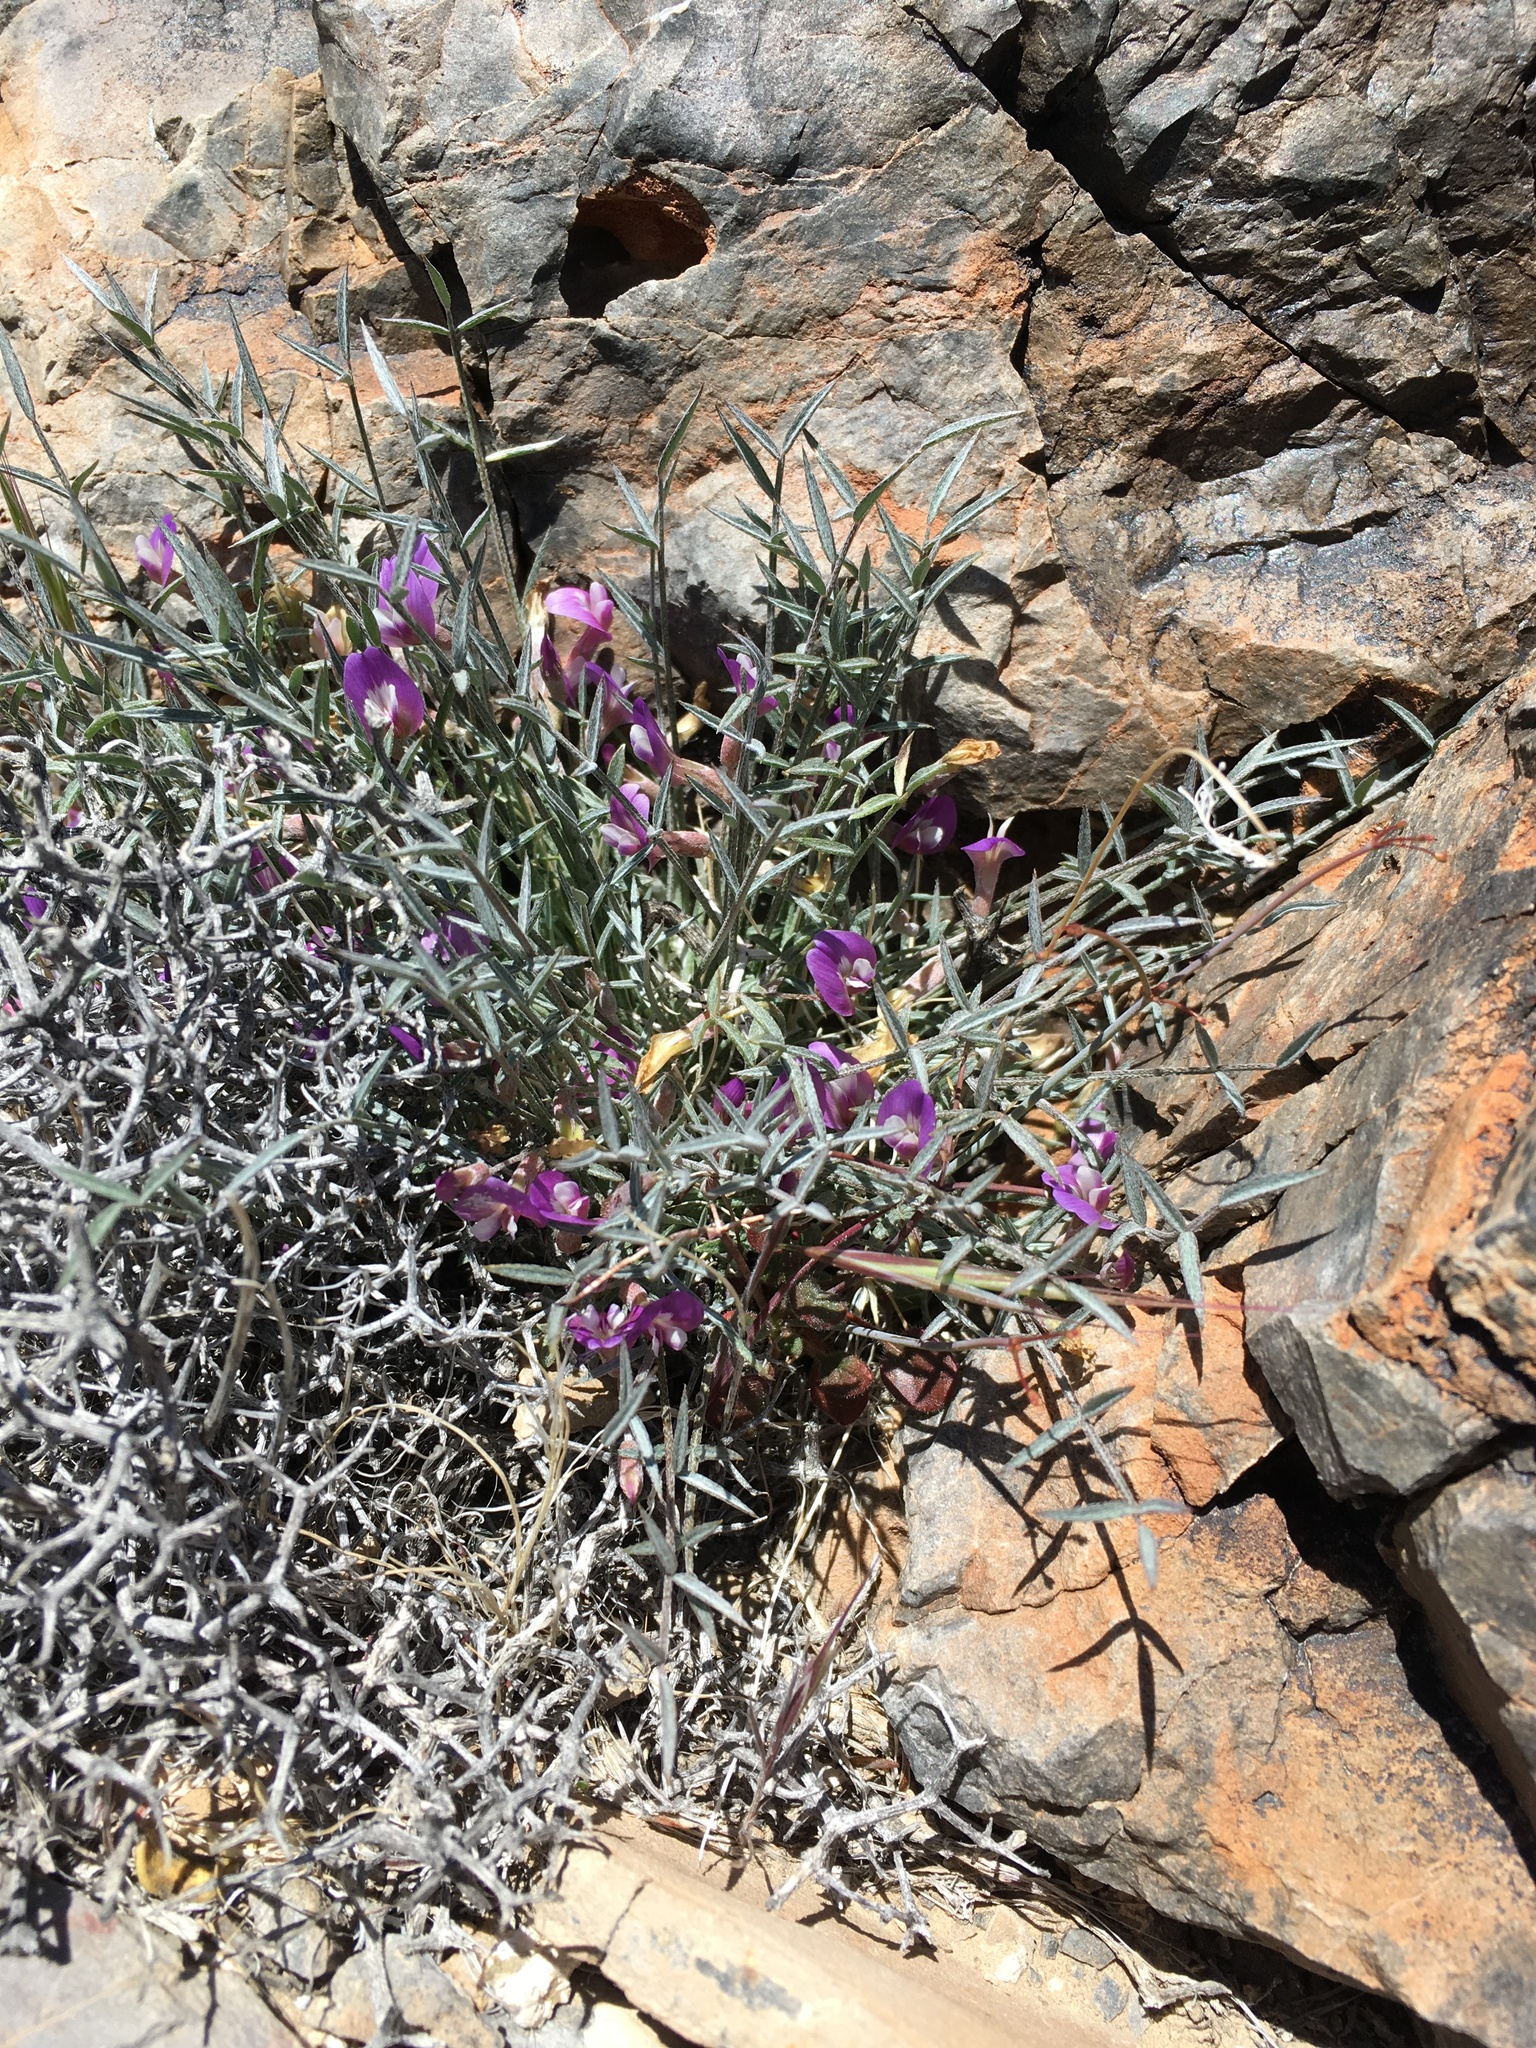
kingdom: Plantae
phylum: Tracheophyta
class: Magnoliopsida
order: Fabales
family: Fabaceae
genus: Astragalus
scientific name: Astragalus panamintensis
